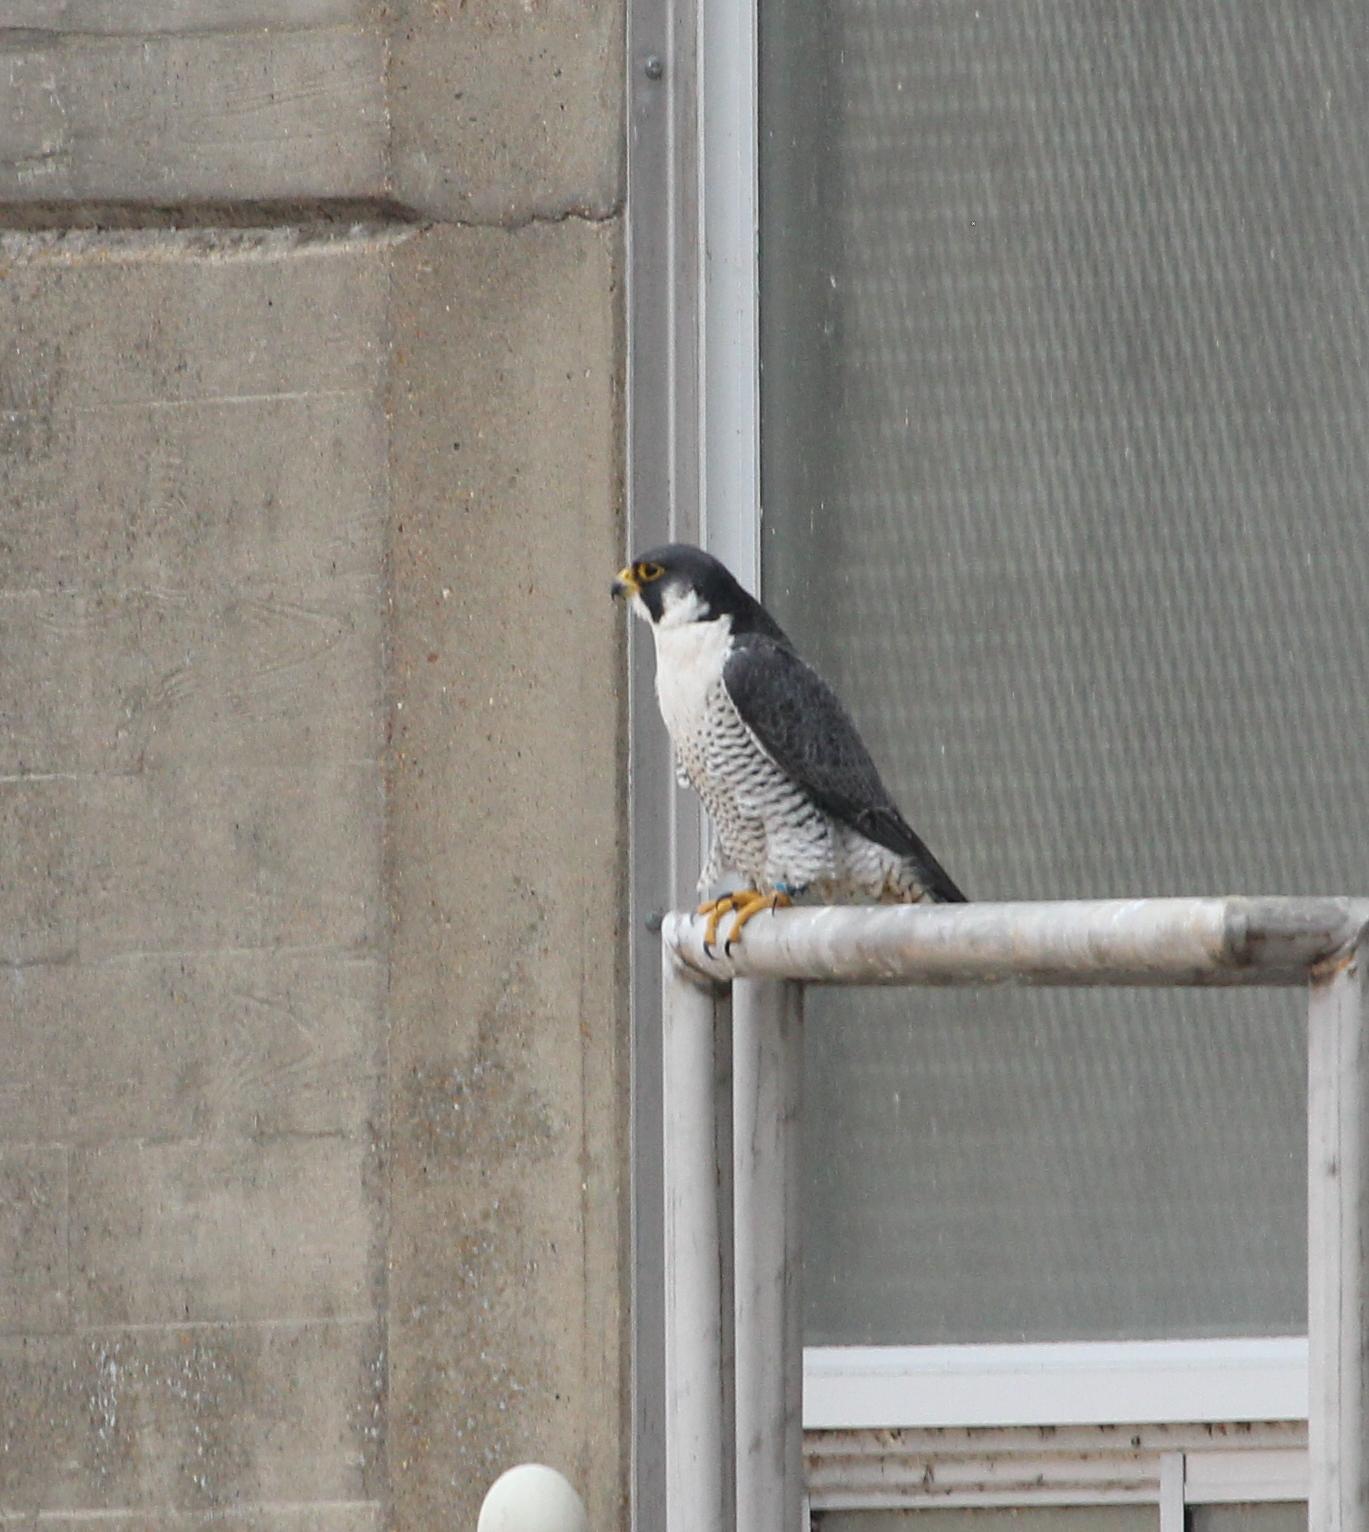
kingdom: Animalia
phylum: Chordata
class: Aves
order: Falconiformes
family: Falconidae
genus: Falco
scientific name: Falco peregrinus
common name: Peregrine falcon
